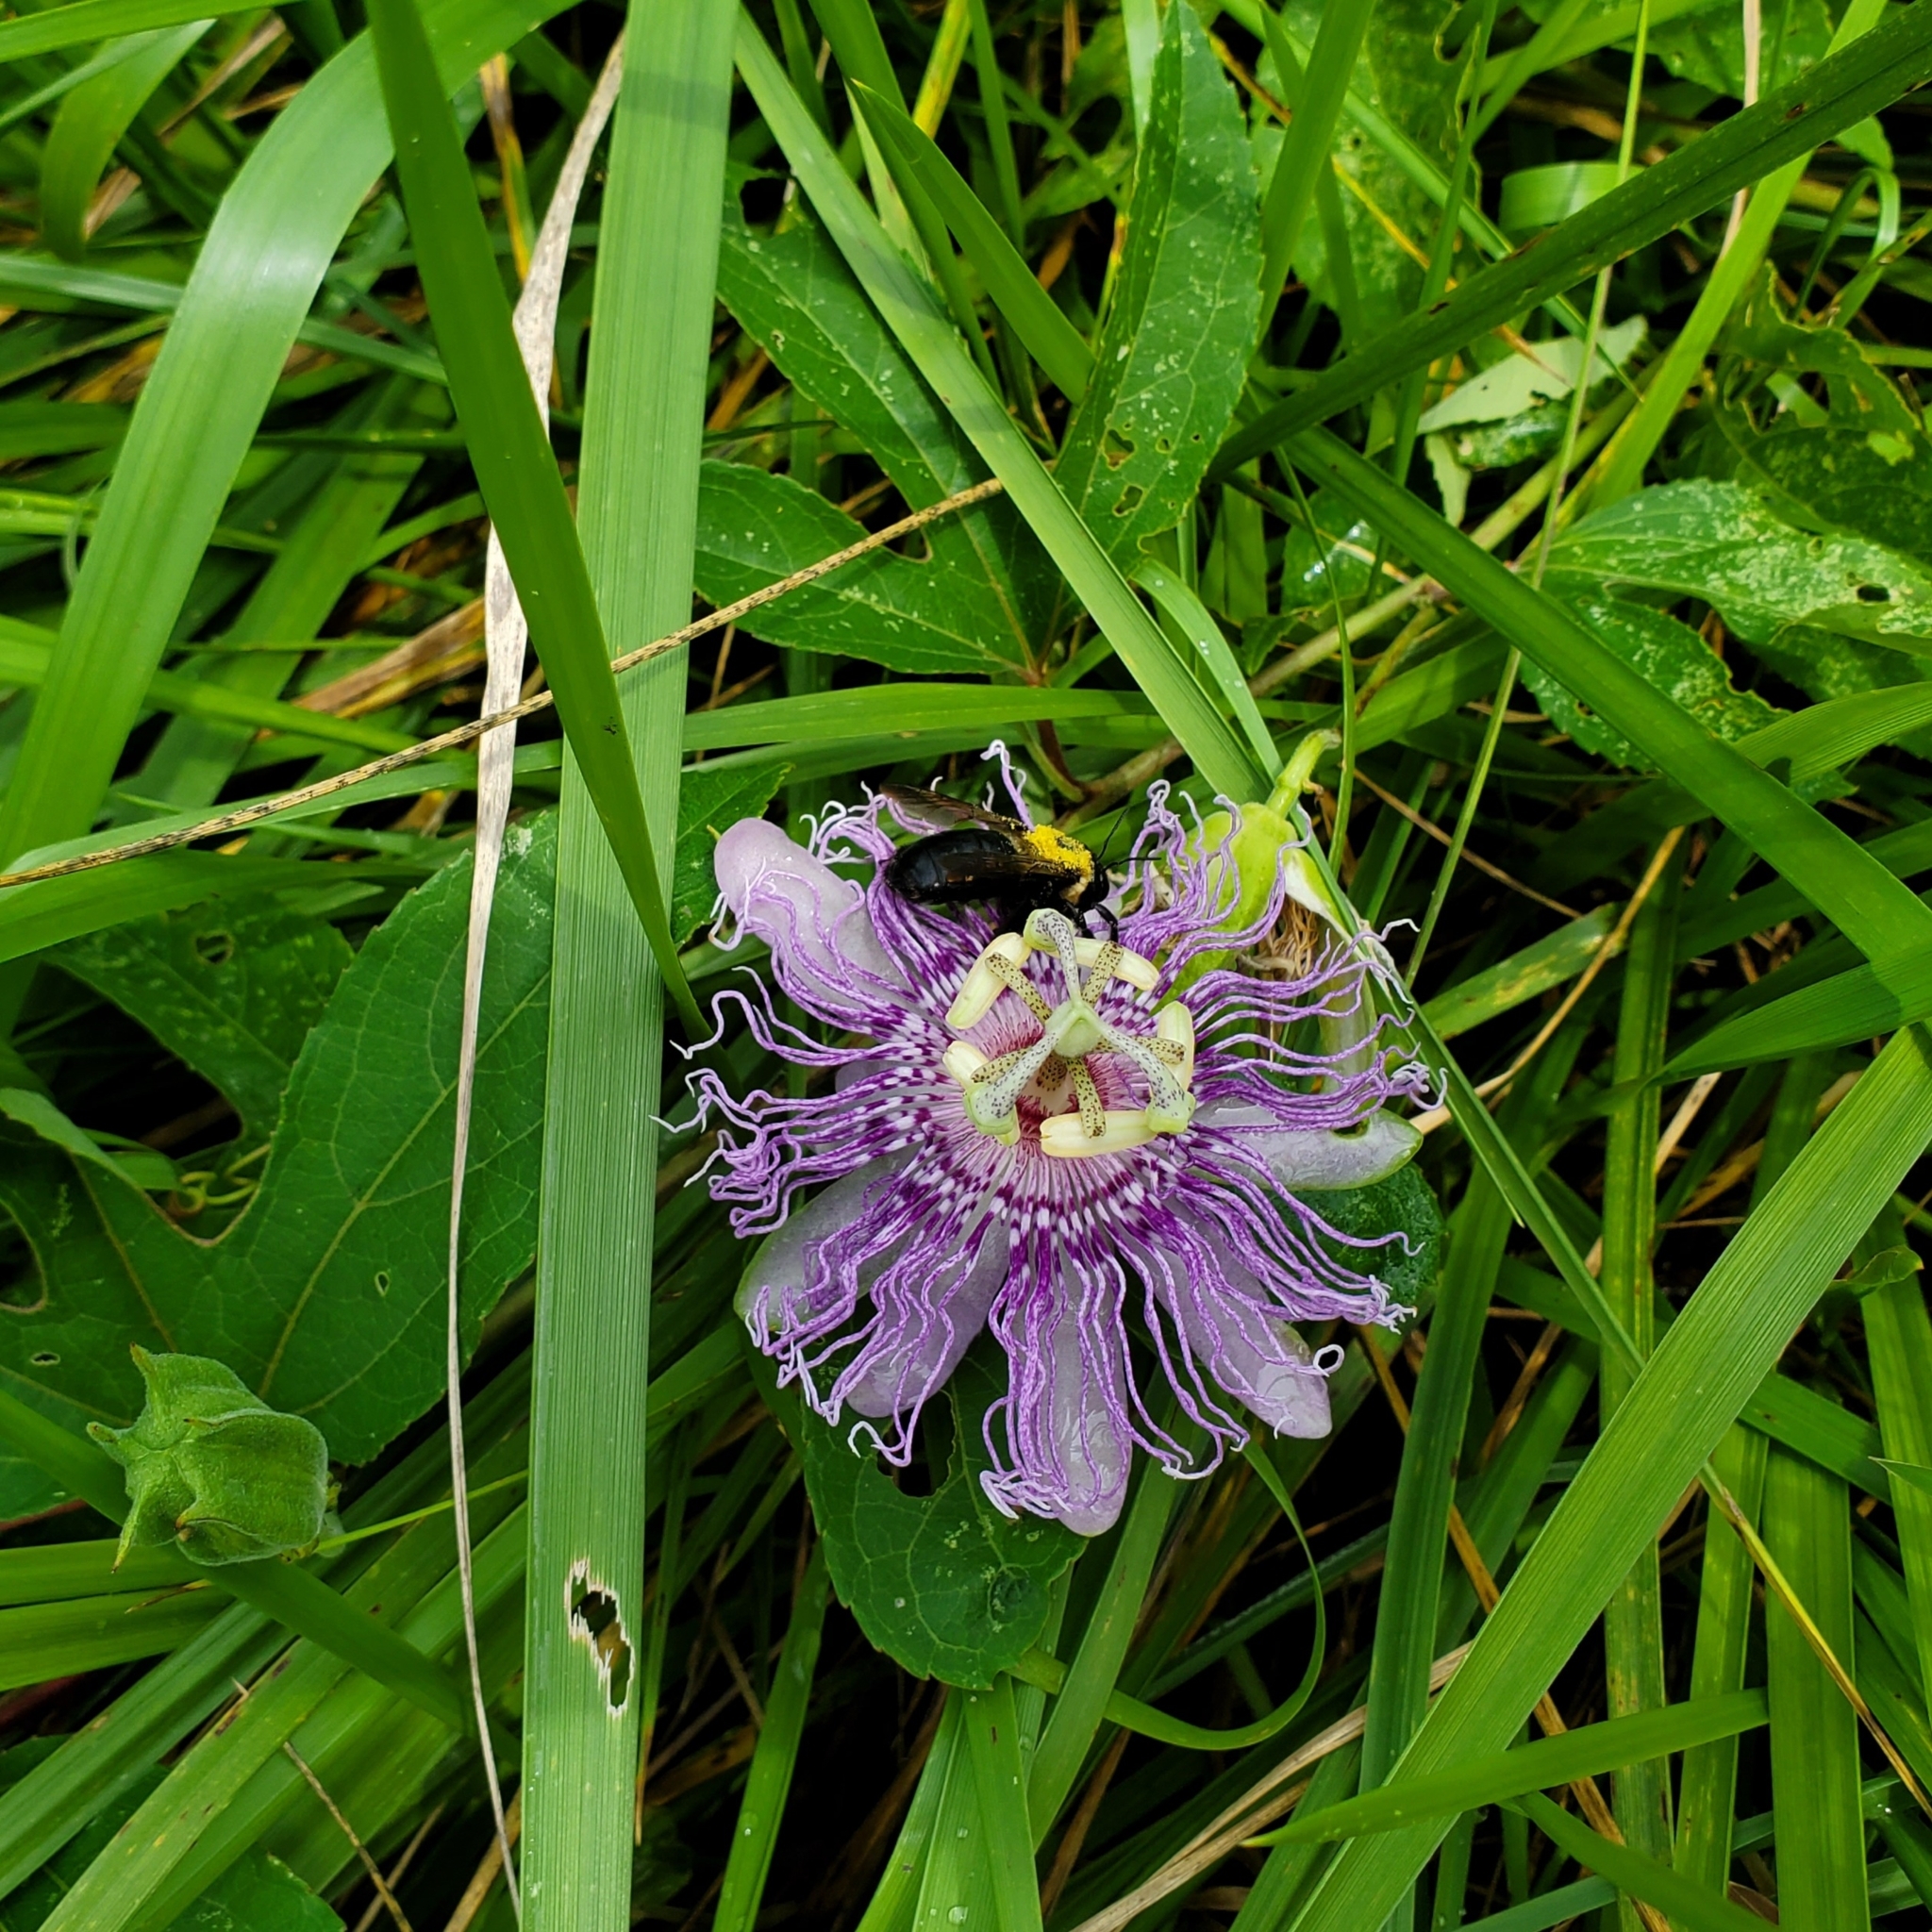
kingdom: Plantae
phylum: Tracheophyta
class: Magnoliopsida
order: Malpighiales
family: Passifloraceae
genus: Passiflora
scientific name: Passiflora incarnata
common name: Apricot-vine
